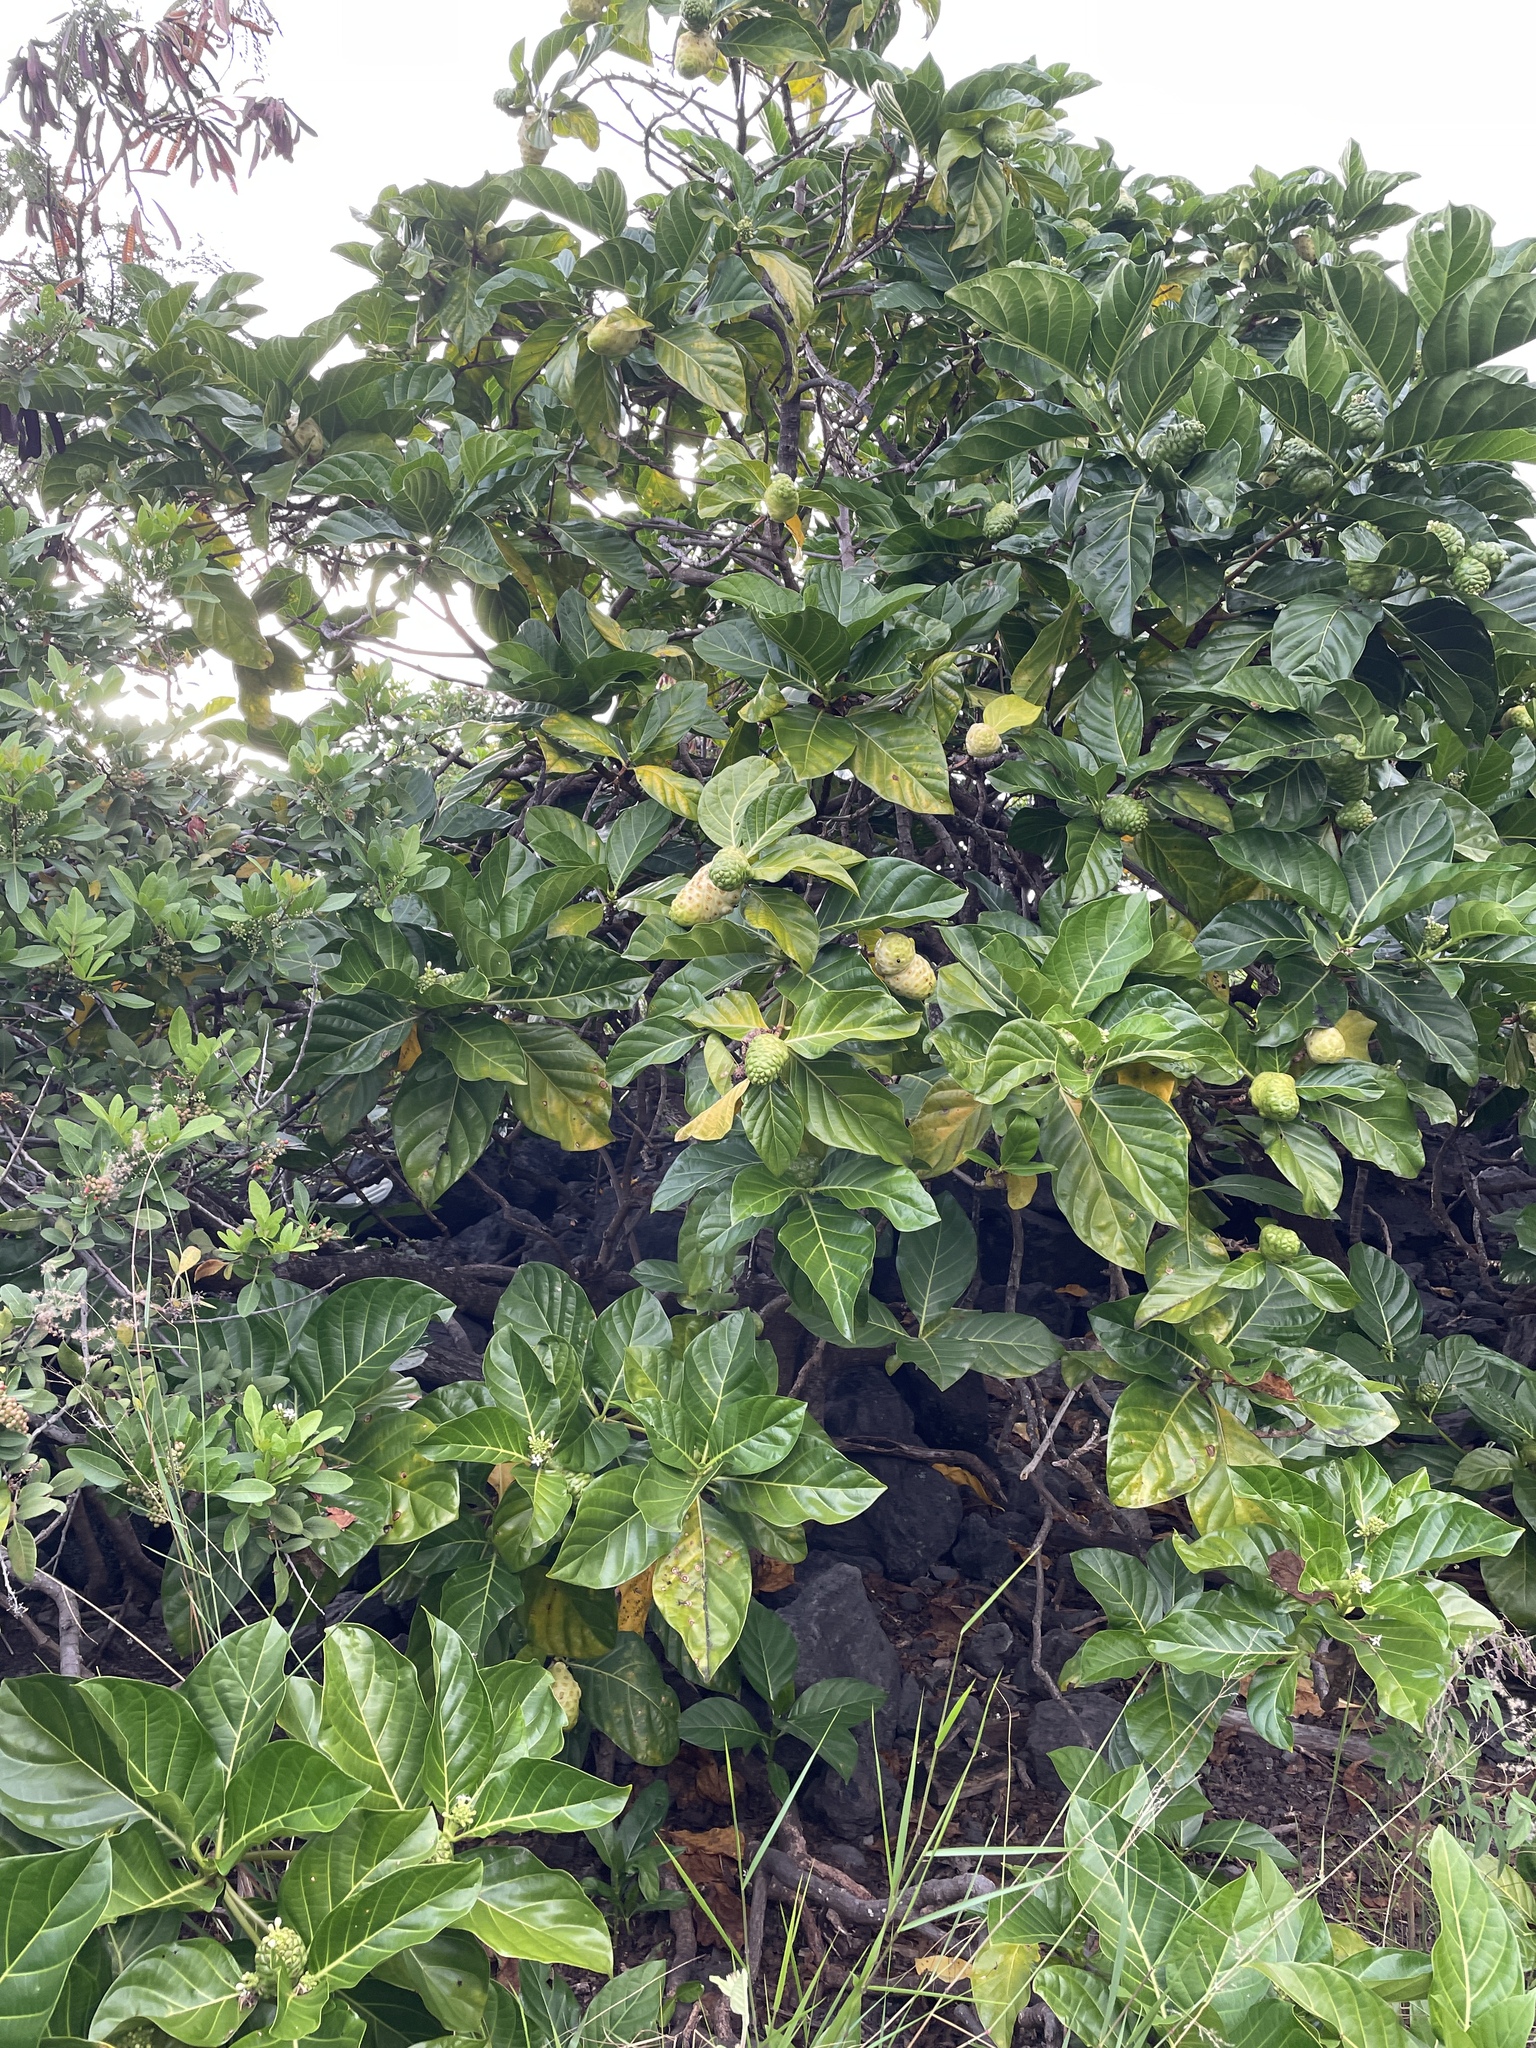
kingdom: Plantae
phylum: Tracheophyta
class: Magnoliopsida
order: Gentianales
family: Rubiaceae
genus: Morinda
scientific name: Morinda citrifolia
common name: Indian-mulberry
